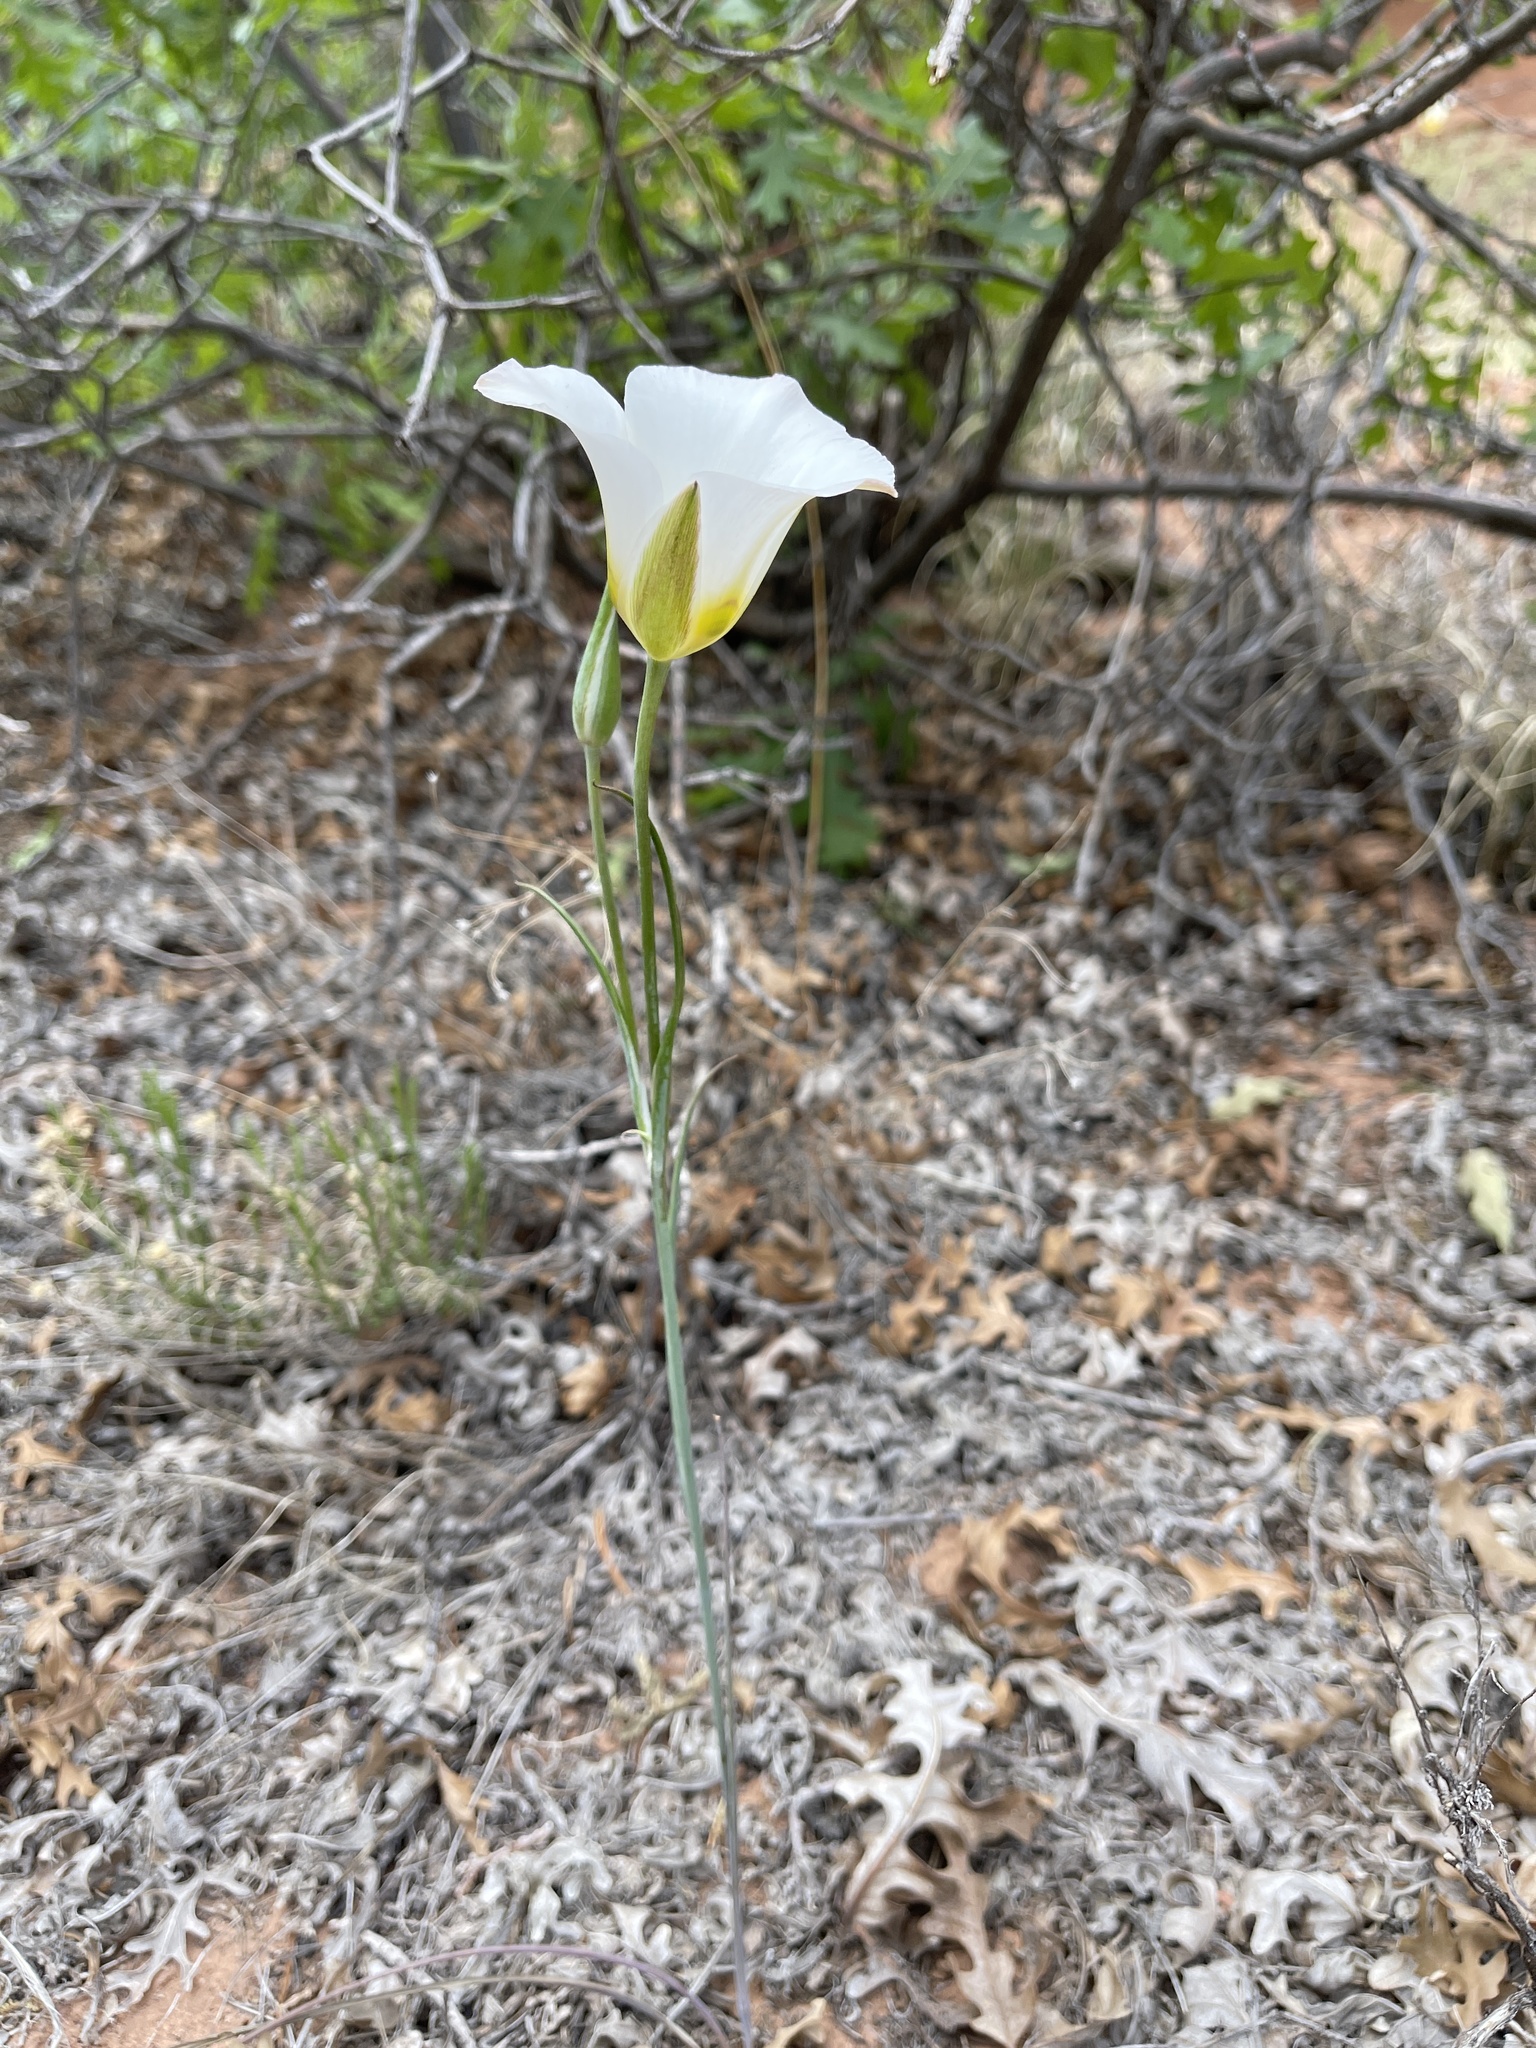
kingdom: Plantae
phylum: Tracheophyta
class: Liliopsida
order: Liliales
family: Liliaceae
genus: Calochortus
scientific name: Calochortus nuttallii
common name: Sego-lily
